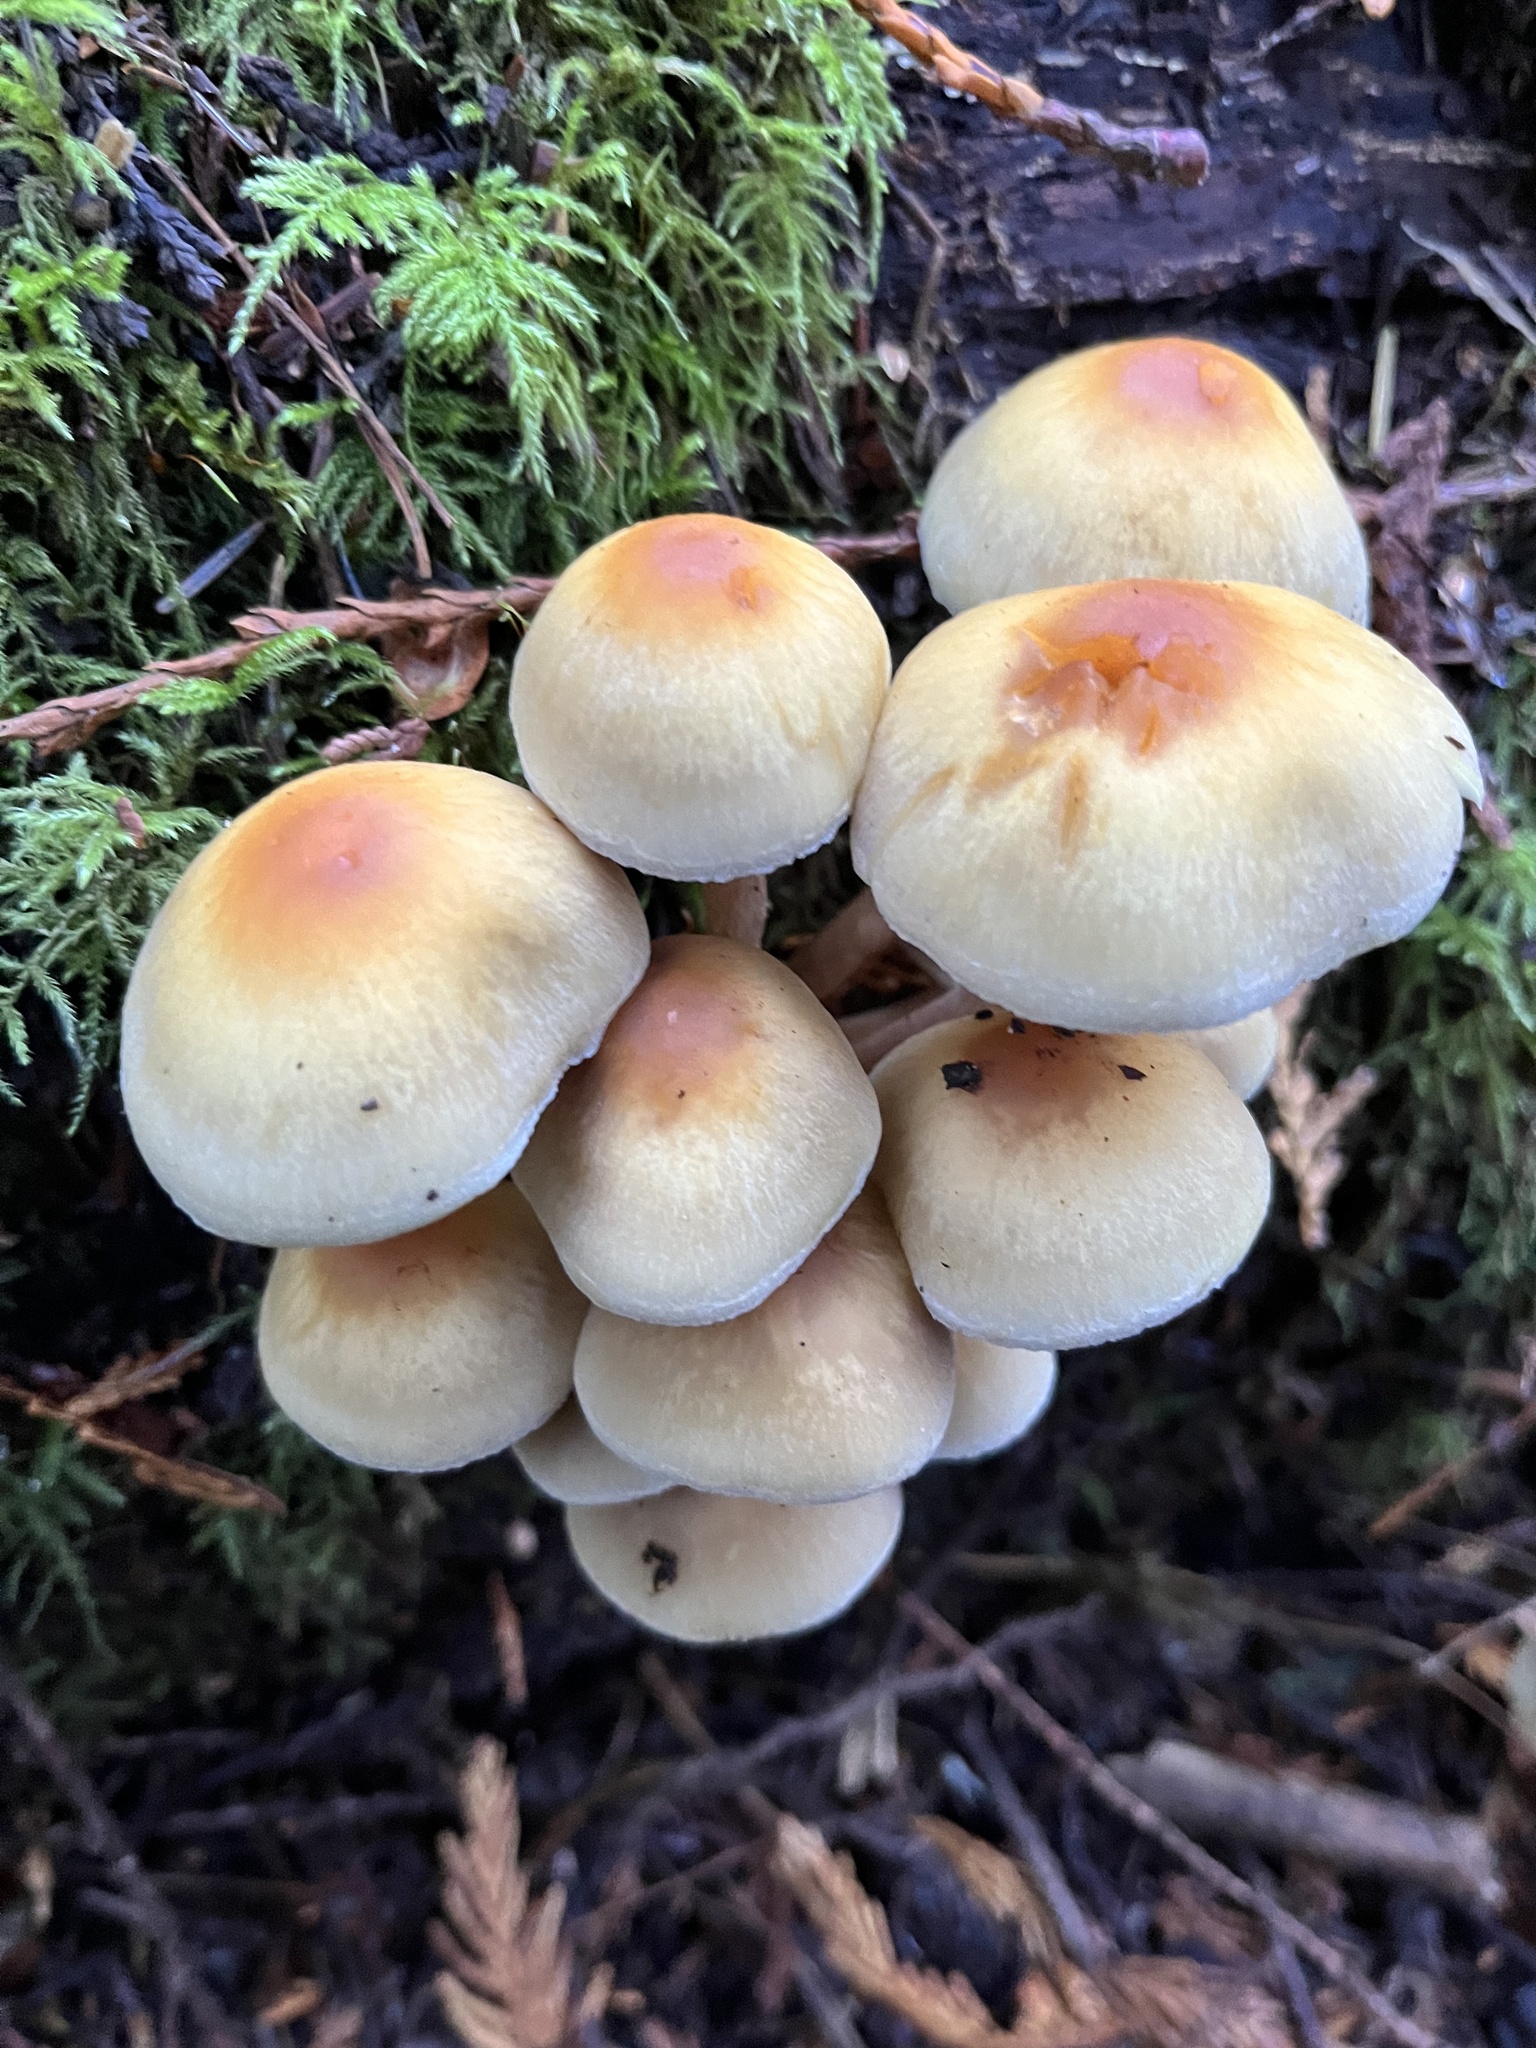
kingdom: Fungi
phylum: Basidiomycota
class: Agaricomycetes
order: Agaricales
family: Strophariaceae
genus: Hypholoma
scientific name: Hypholoma capnoides
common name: Conifer tuft
